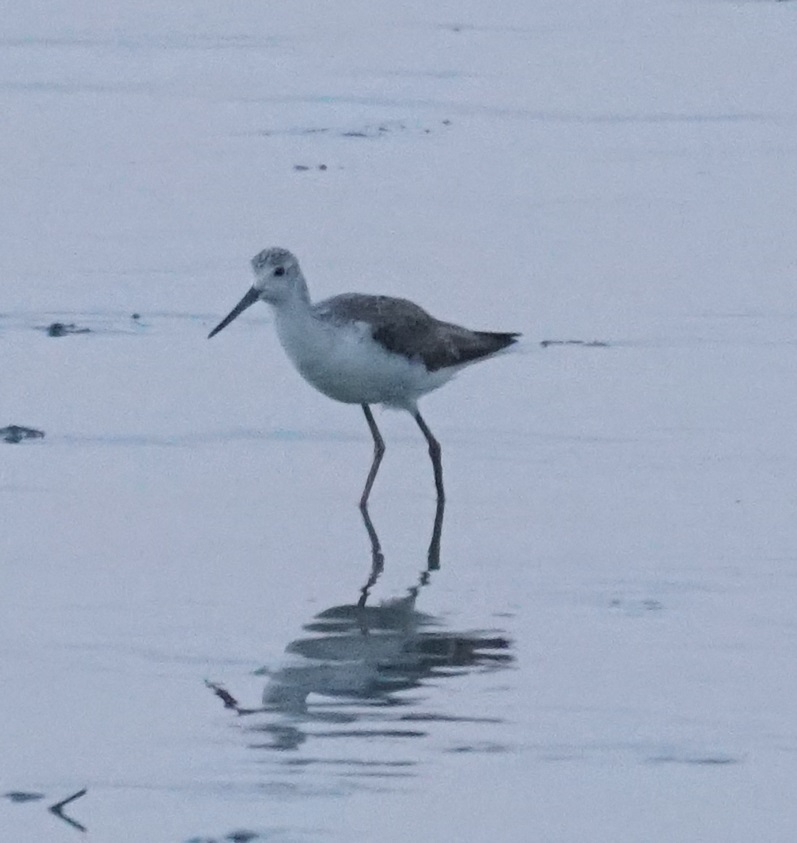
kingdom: Animalia
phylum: Chordata
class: Aves
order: Charadriiformes
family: Scolopacidae
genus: Tringa
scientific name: Tringa stagnatilis
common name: Marsh sandpiper
